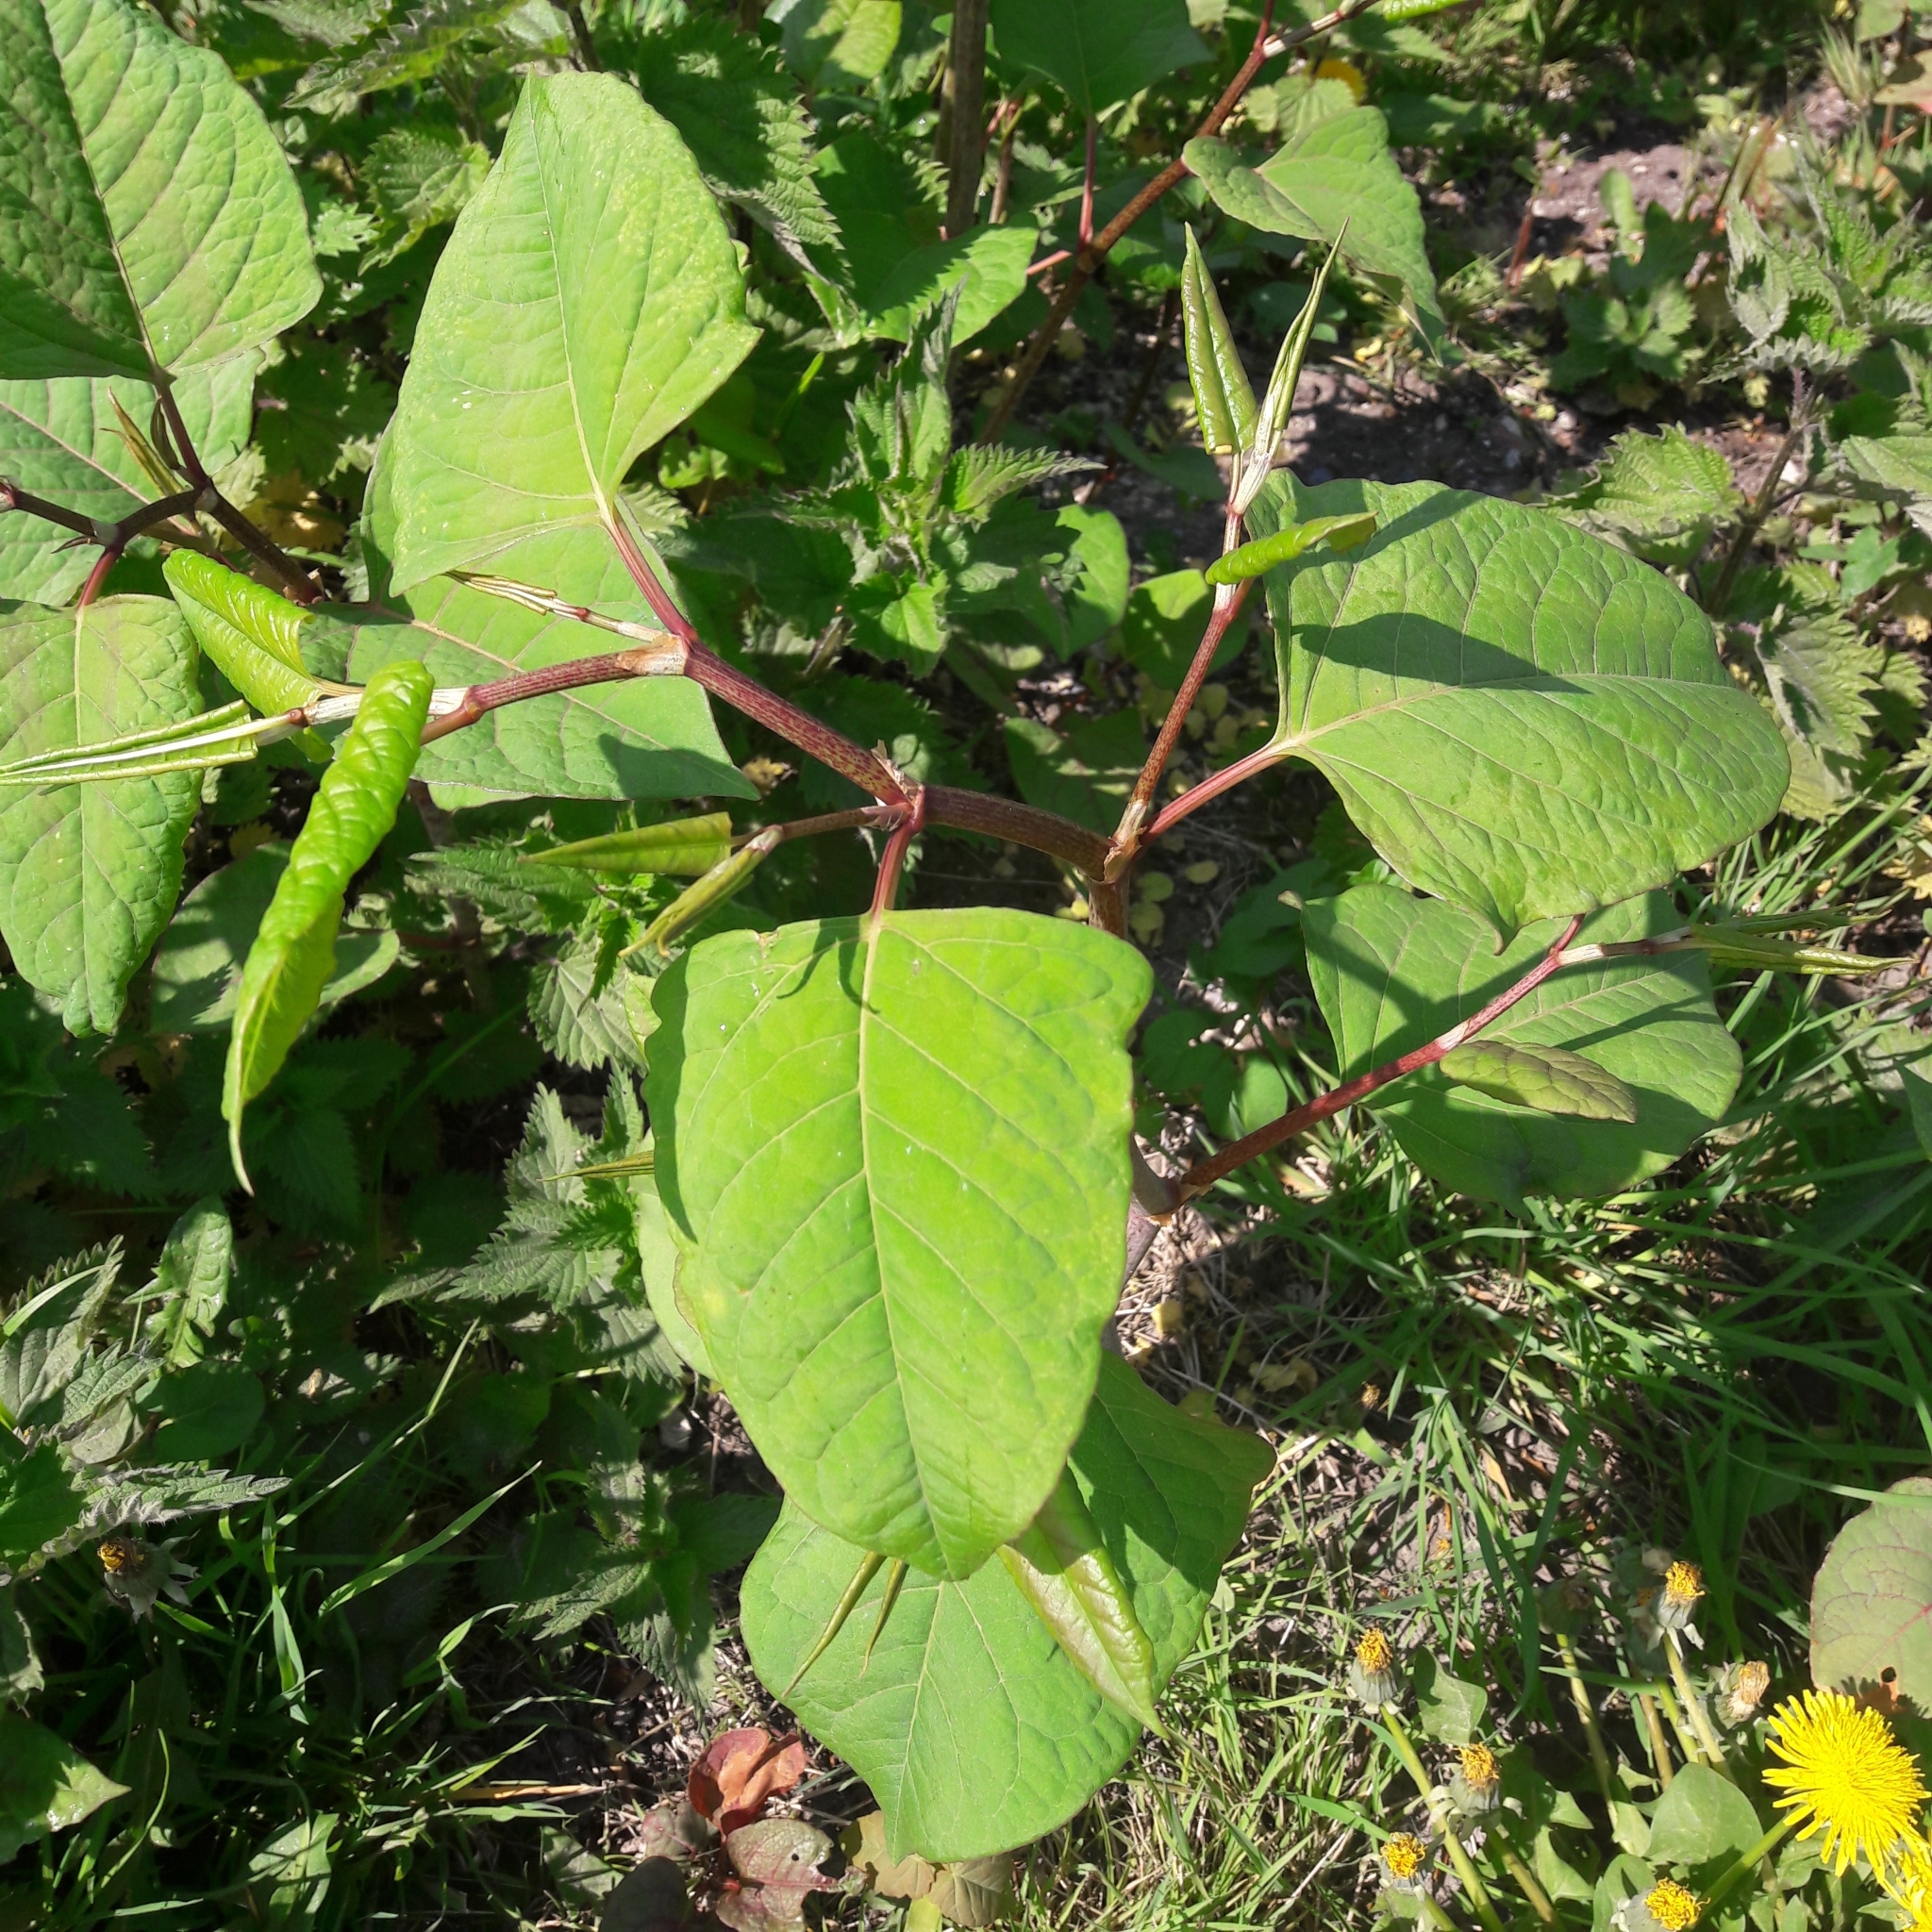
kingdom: Plantae
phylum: Tracheophyta
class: Magnoliopsida
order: Caryophyllales
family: Polygonaceae
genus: Reynoutria
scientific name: Reynoutria japonica
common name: Japanese knotweed
